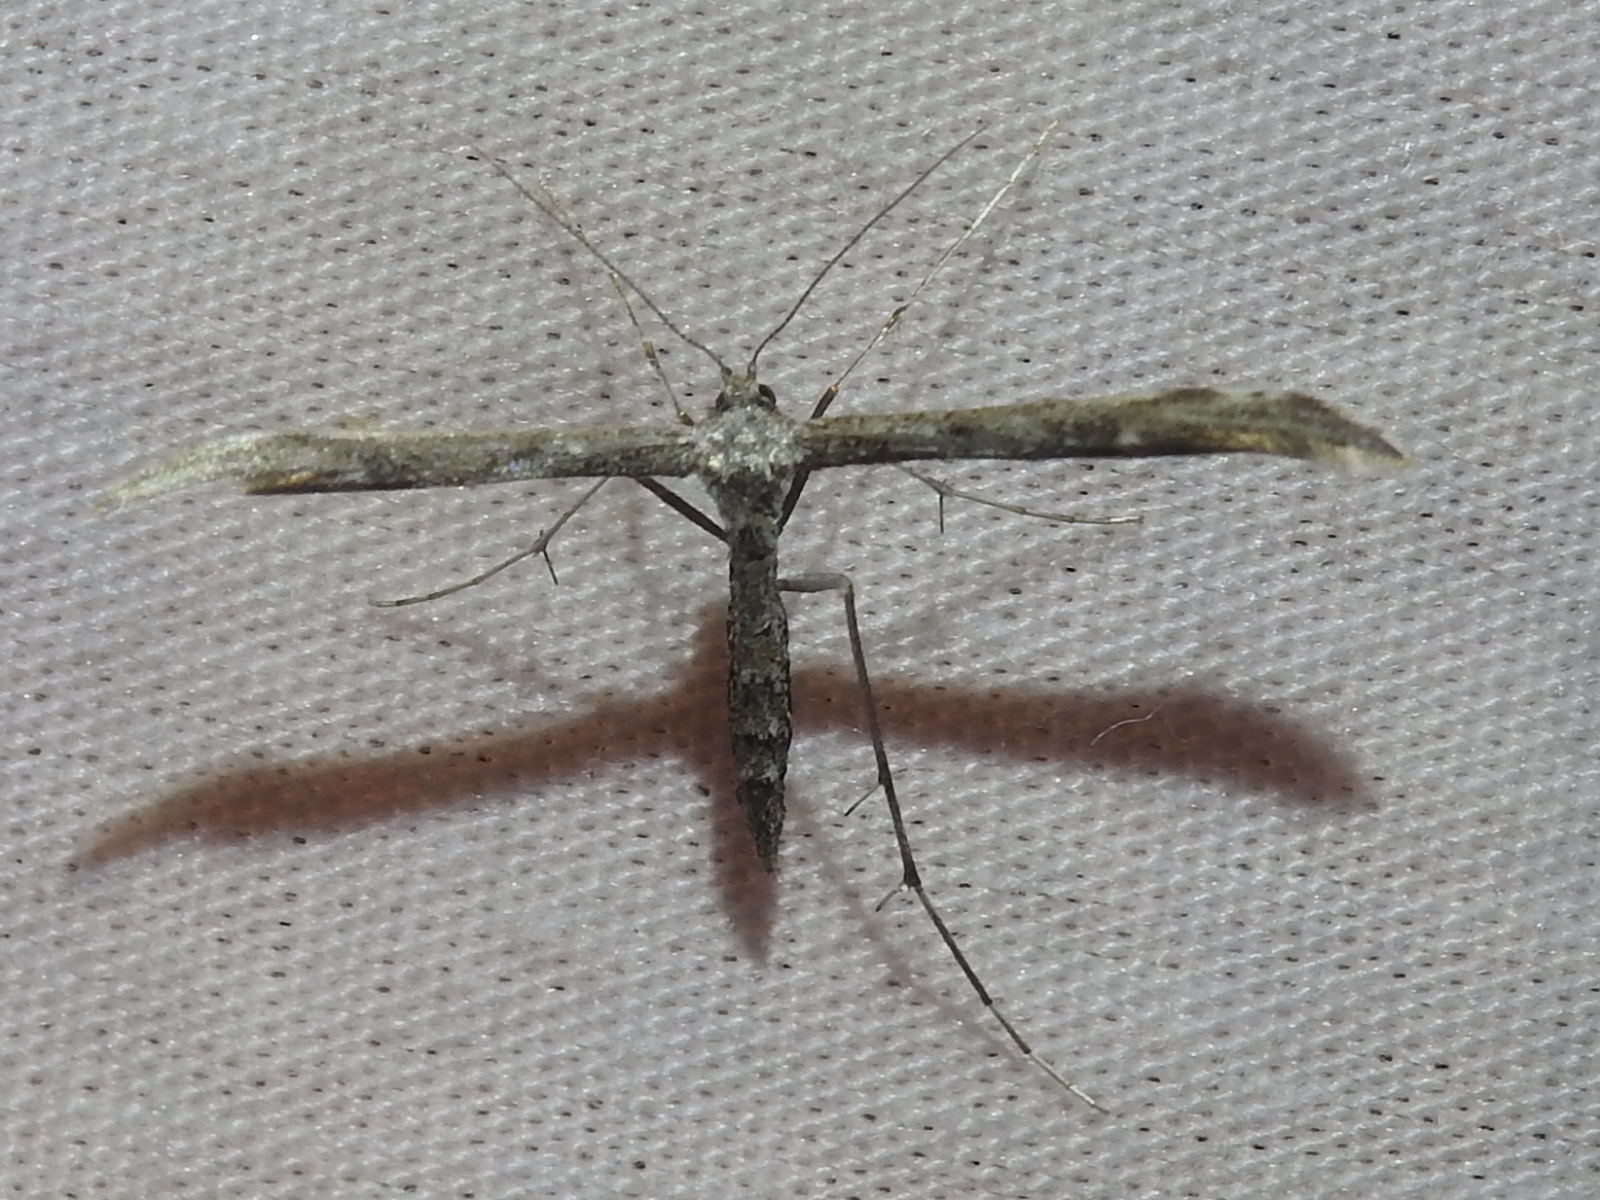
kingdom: Animalia
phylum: Arthropoda
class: Insecta
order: Lepidoptera
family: Pterophoridae
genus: Hellinsia
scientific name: Hellinsia inquinatus
